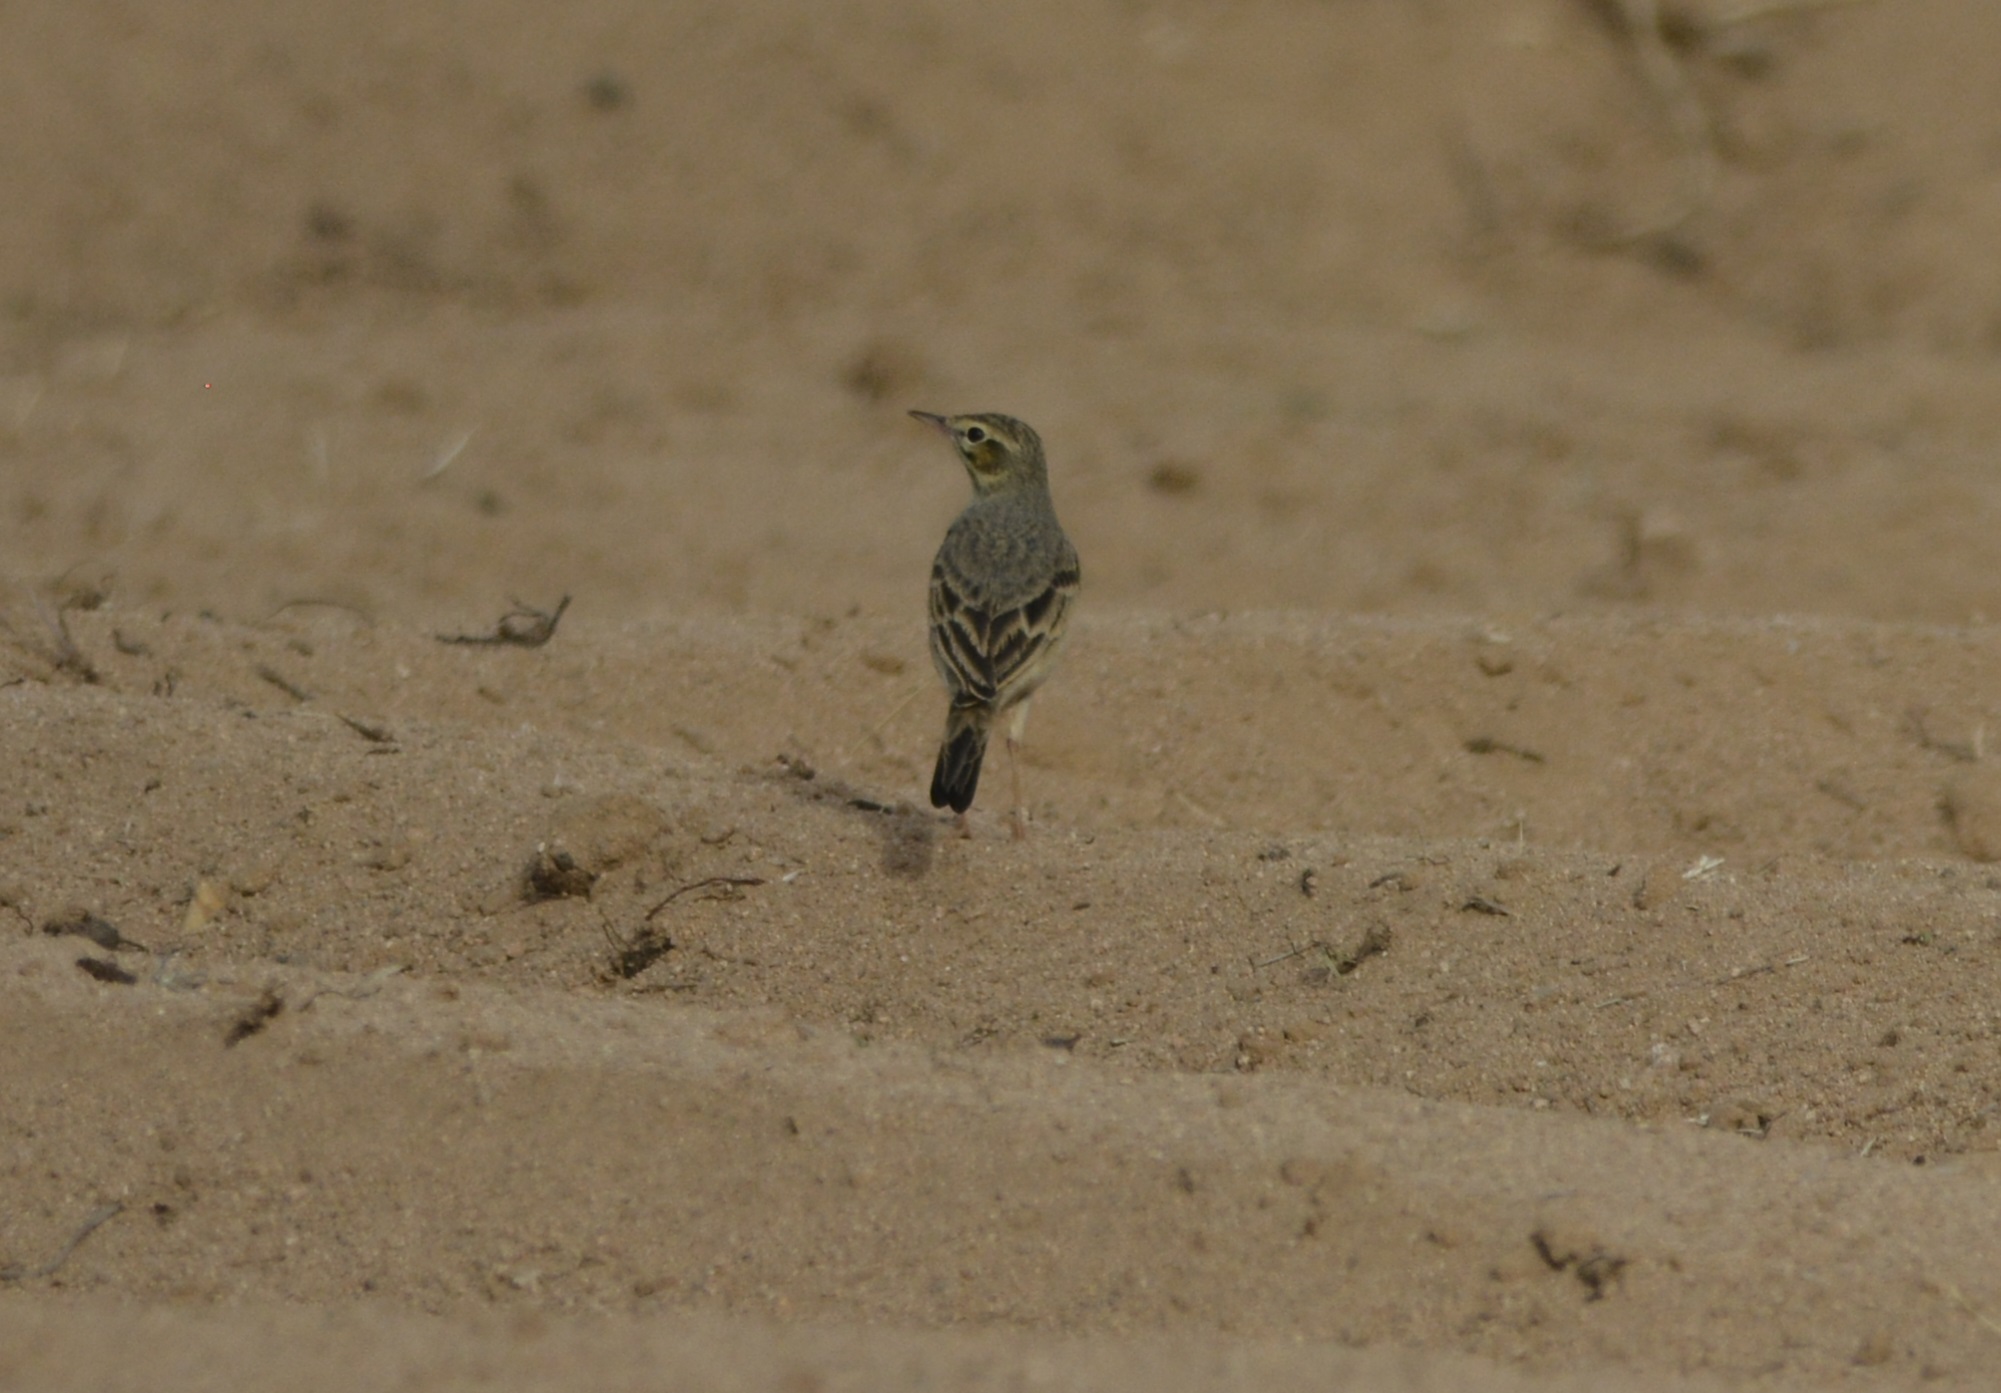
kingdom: Animalia
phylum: Chordata
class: Aves
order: Passeriformes
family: Motacillidae
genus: Anthus
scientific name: Anthus campestris
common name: Tawny pipit
